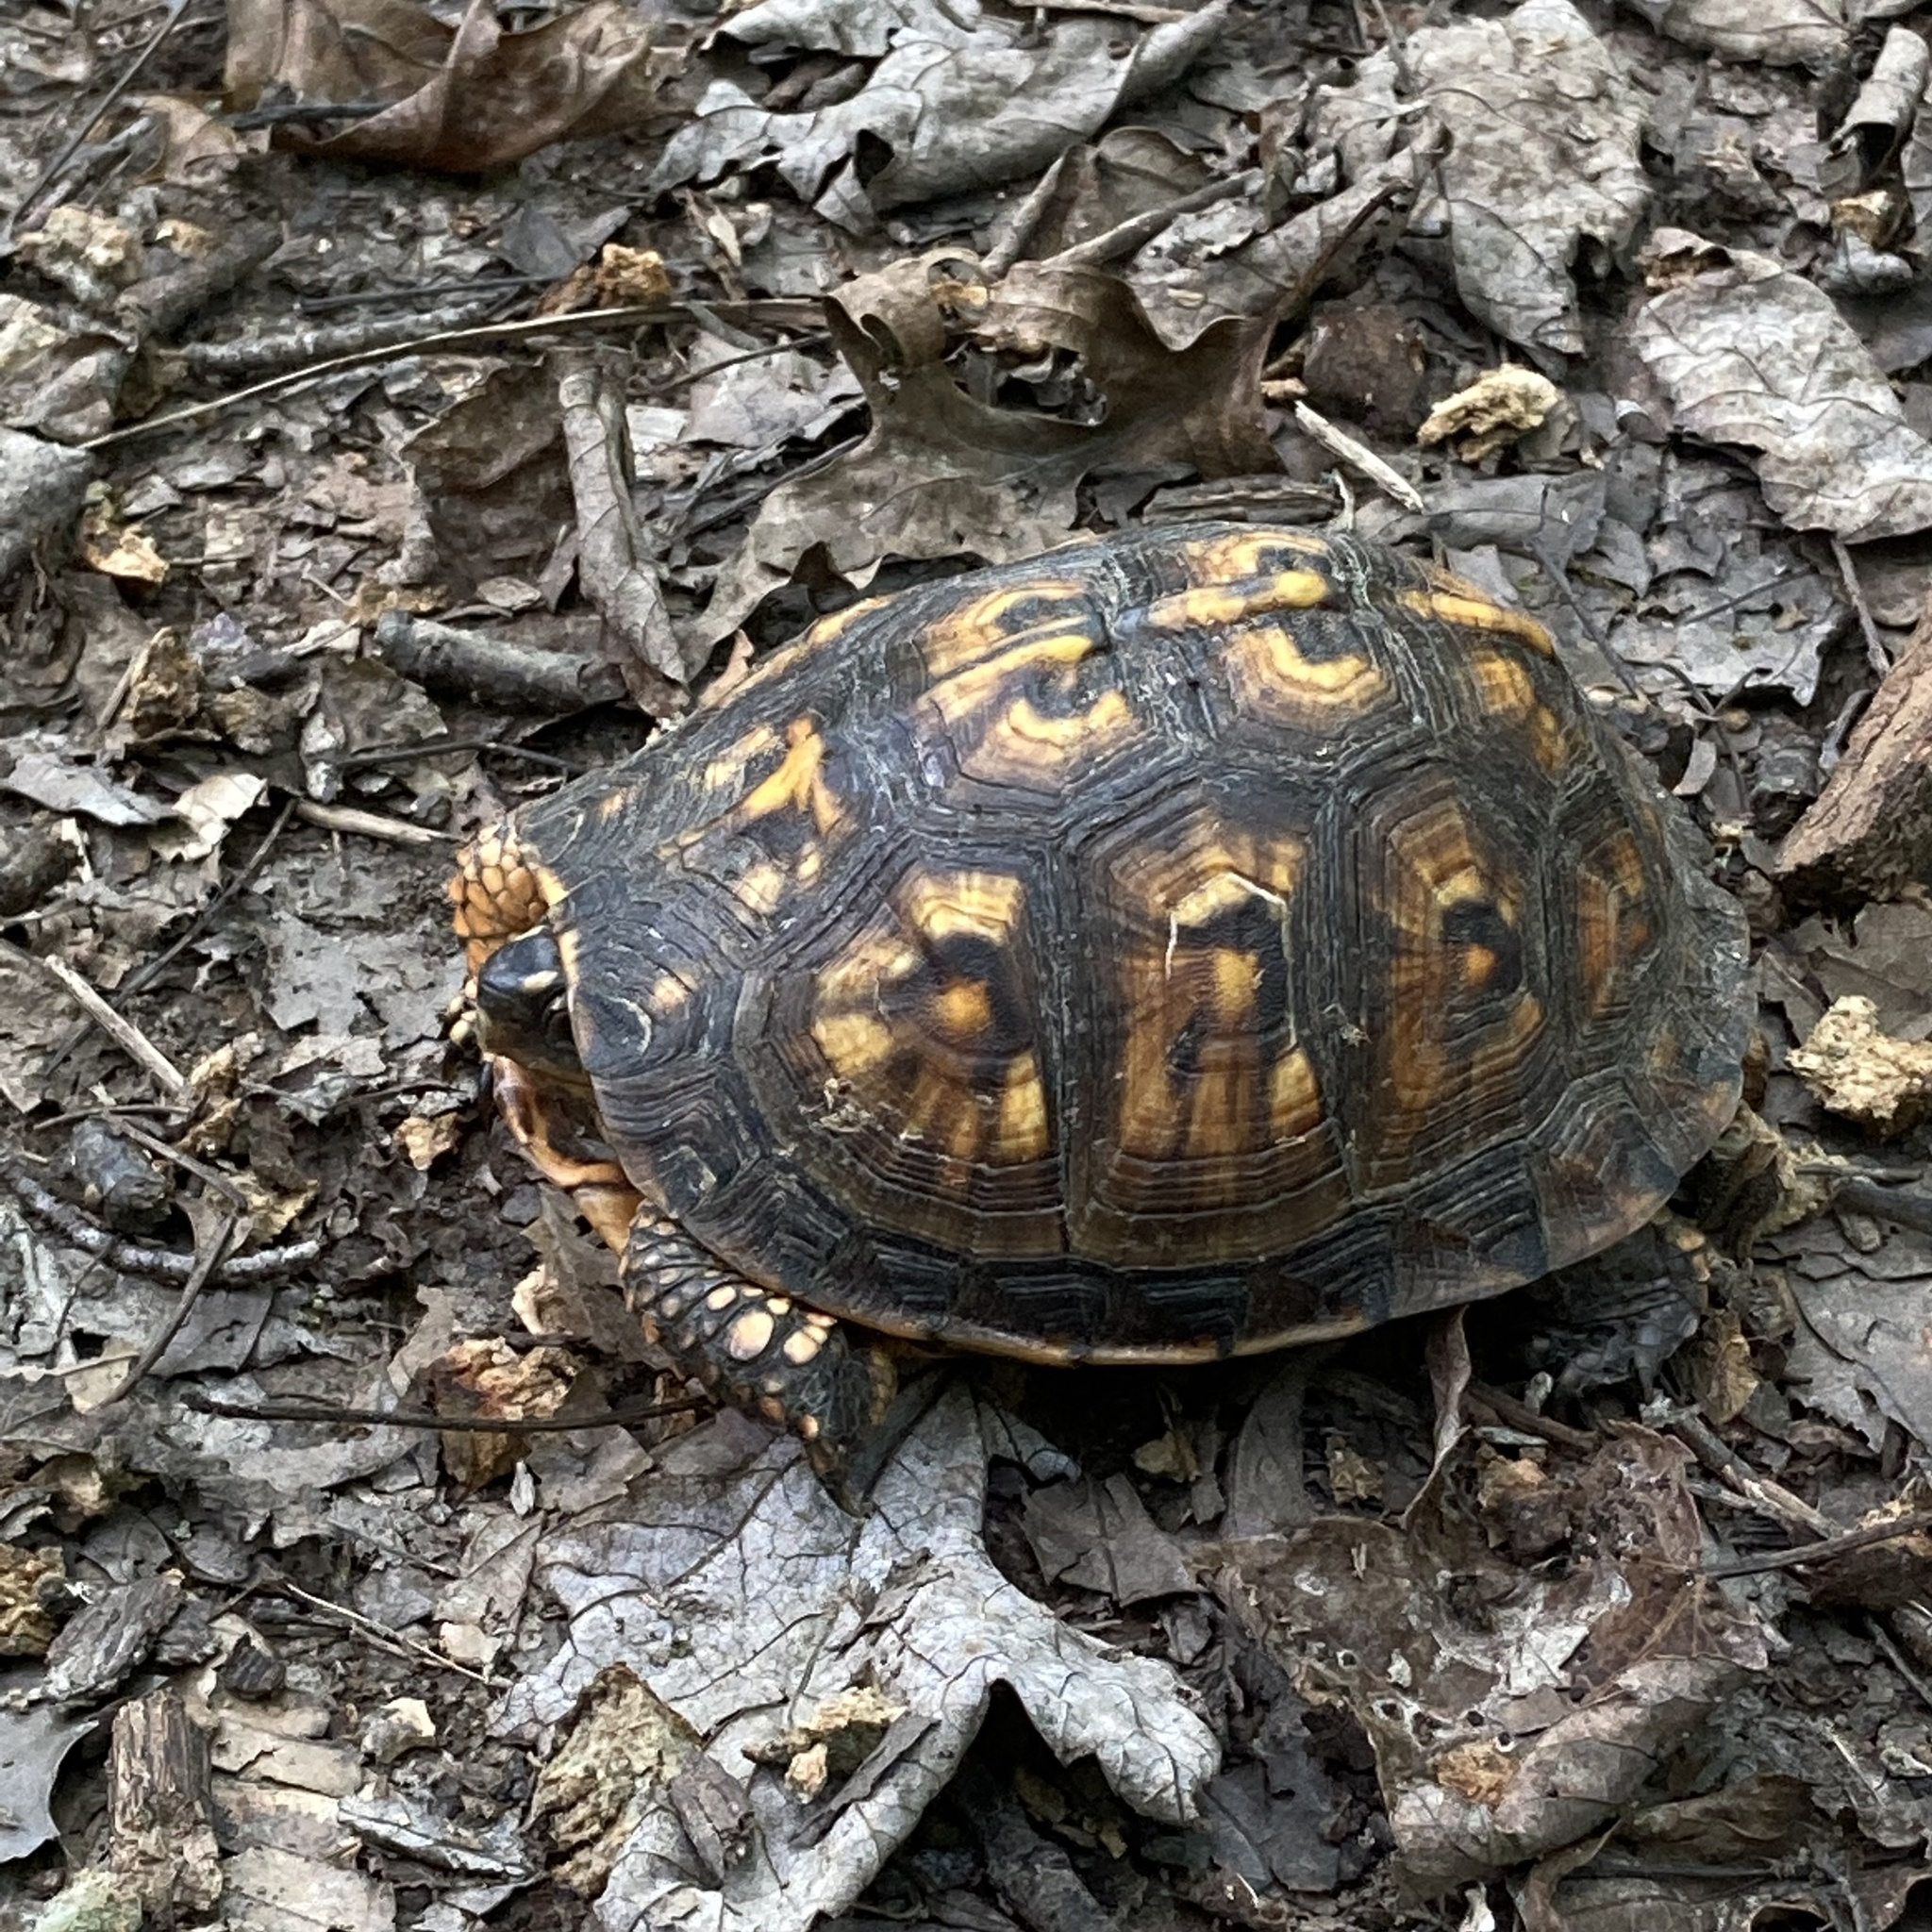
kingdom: Animalia
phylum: Chordata
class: Testudines
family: Emydidae
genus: Terrapene
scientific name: Terrapene carolina
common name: Common box turtle
